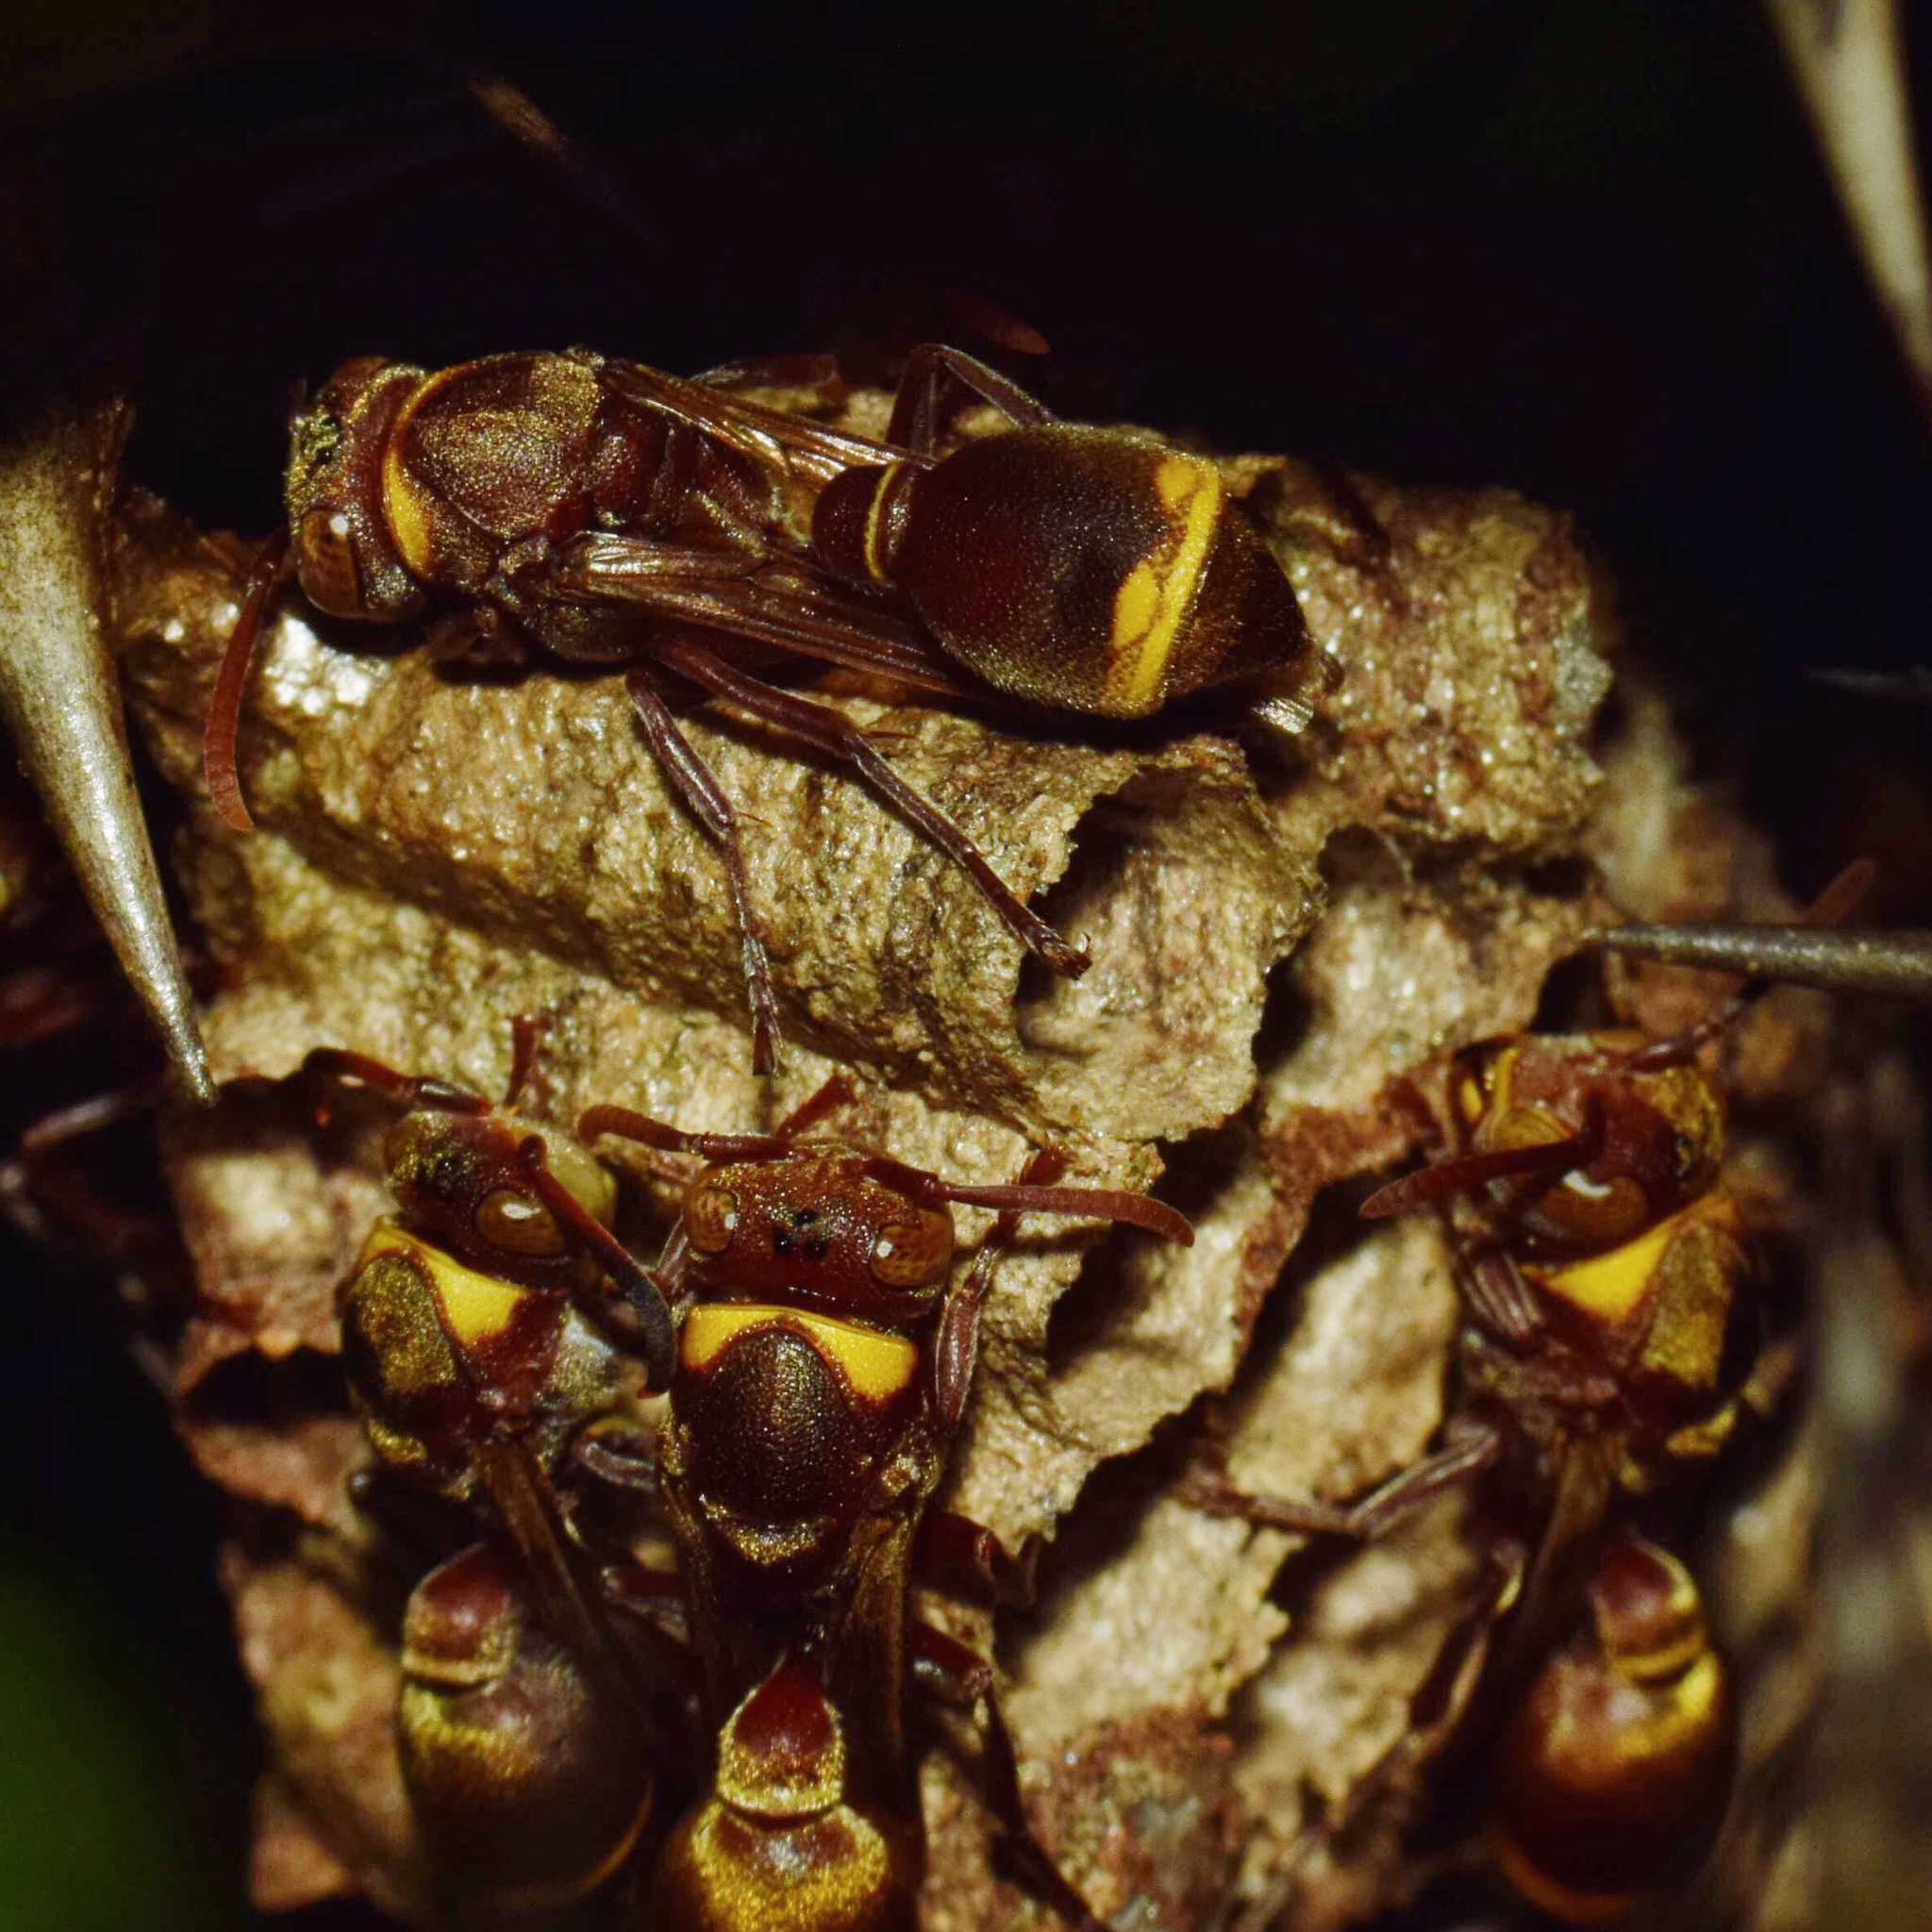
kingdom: Animalia
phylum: Arthropoda
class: Insecta
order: Hymenoptera
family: Vespidae
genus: Ropalidia
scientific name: Ropalidia guttatipennis
